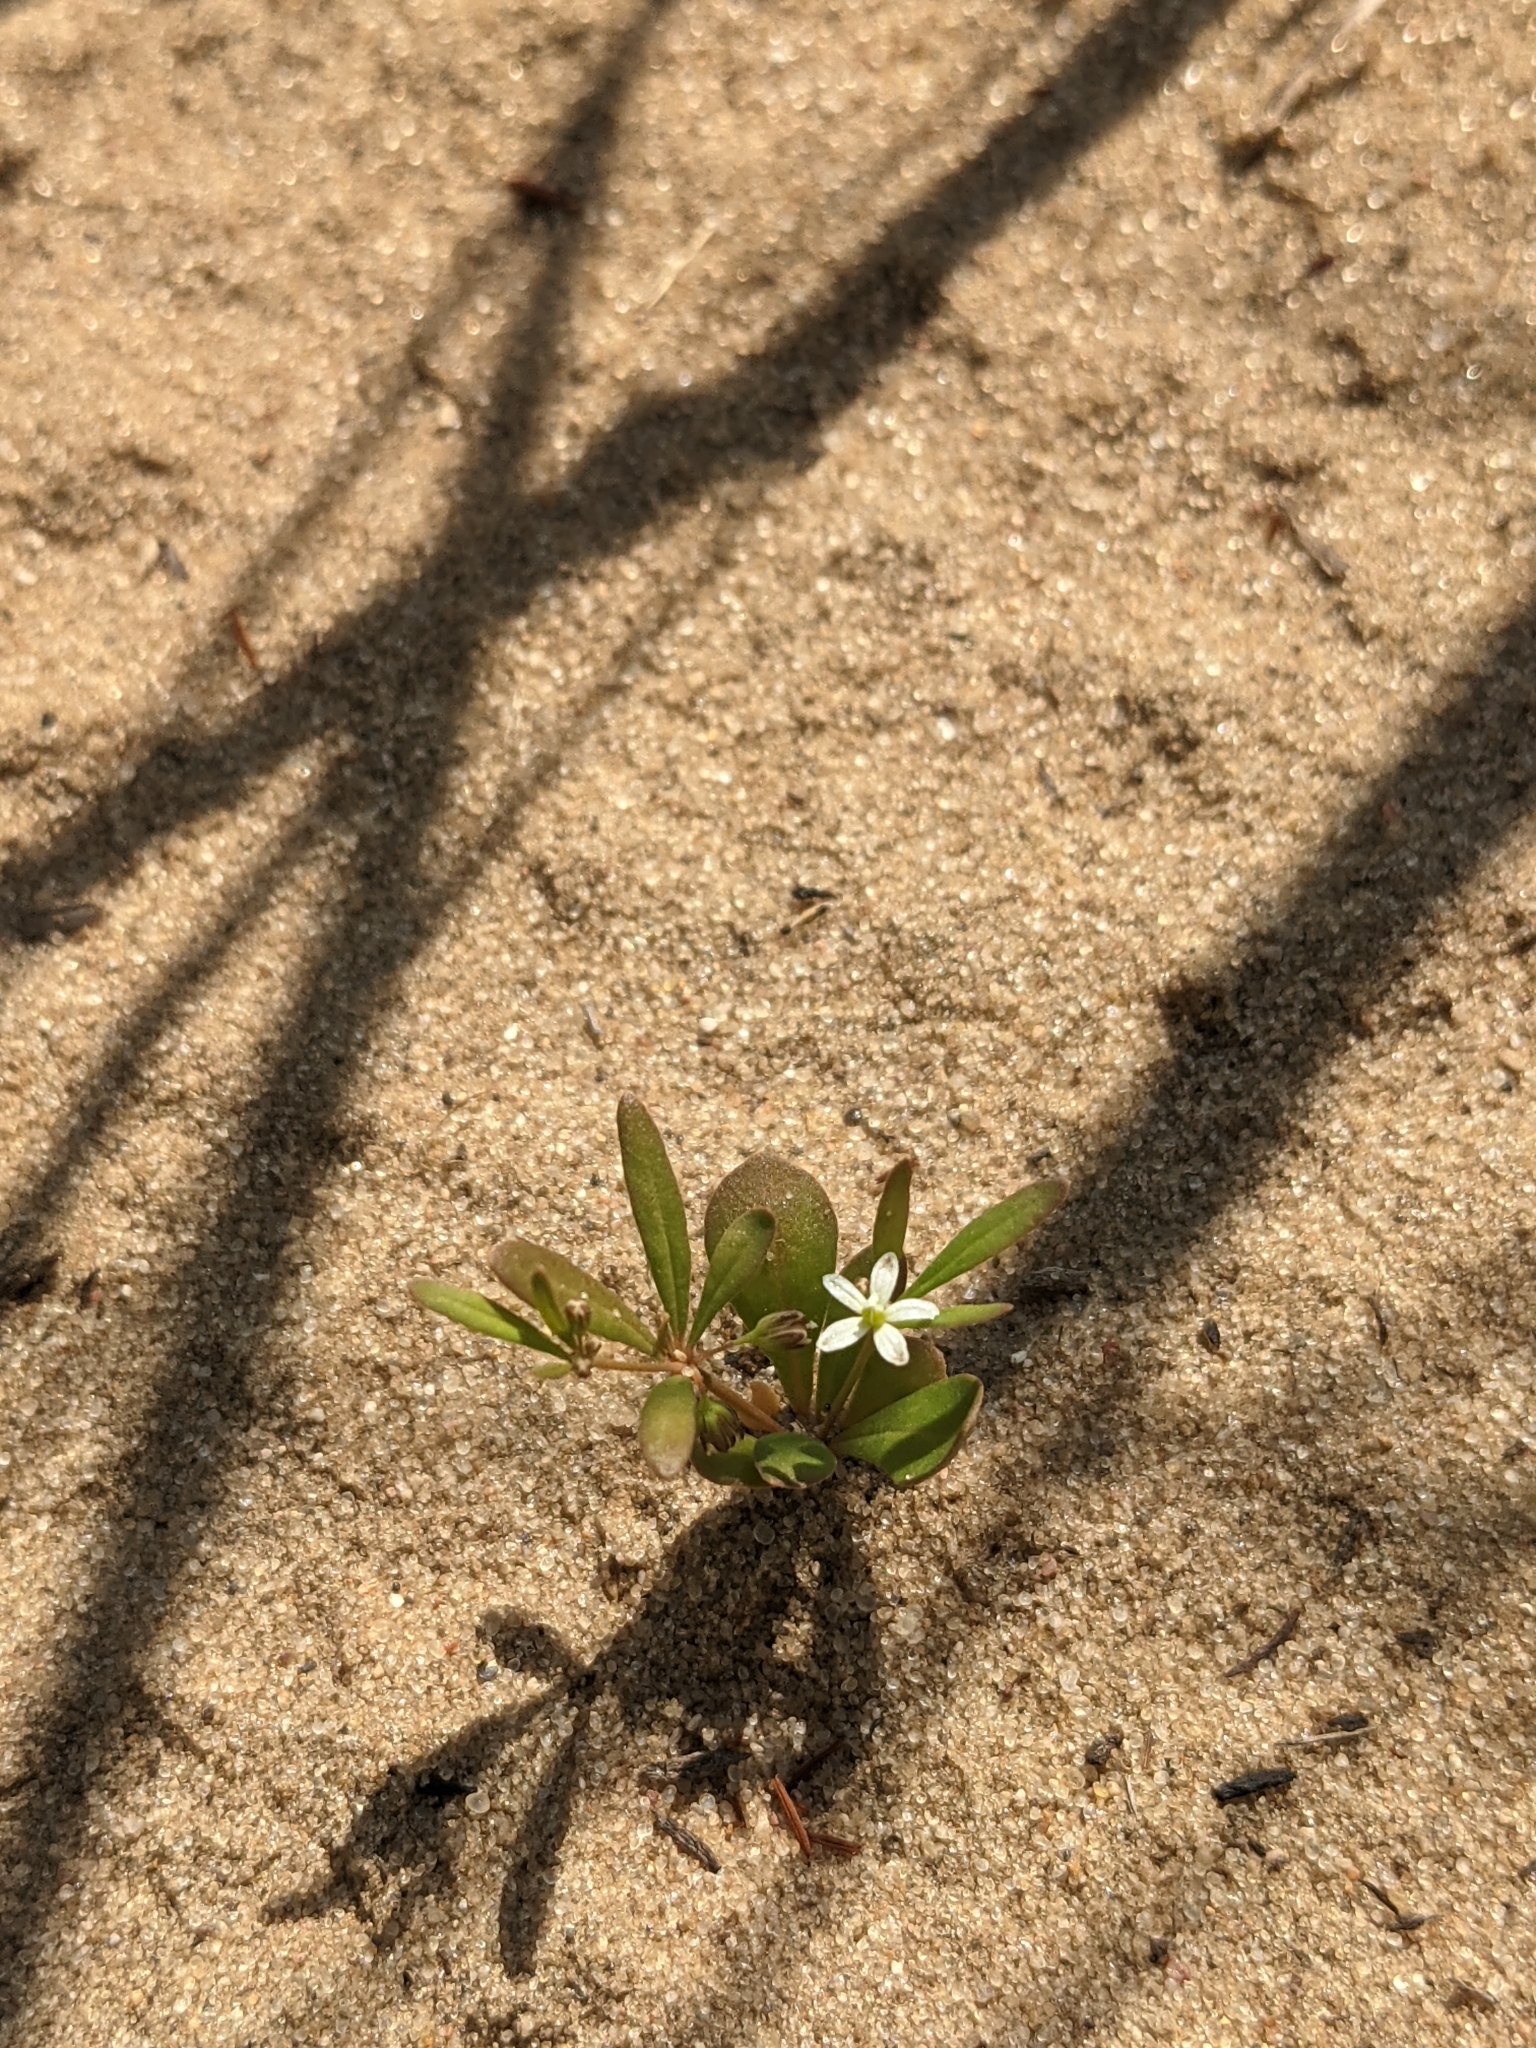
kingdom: Plantae
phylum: Tracheophyta
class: Magnoliopsida
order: Caryophyllales
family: Molluginaceae
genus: Mollugo
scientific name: Mollugo verticillata
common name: Green carpetweed
